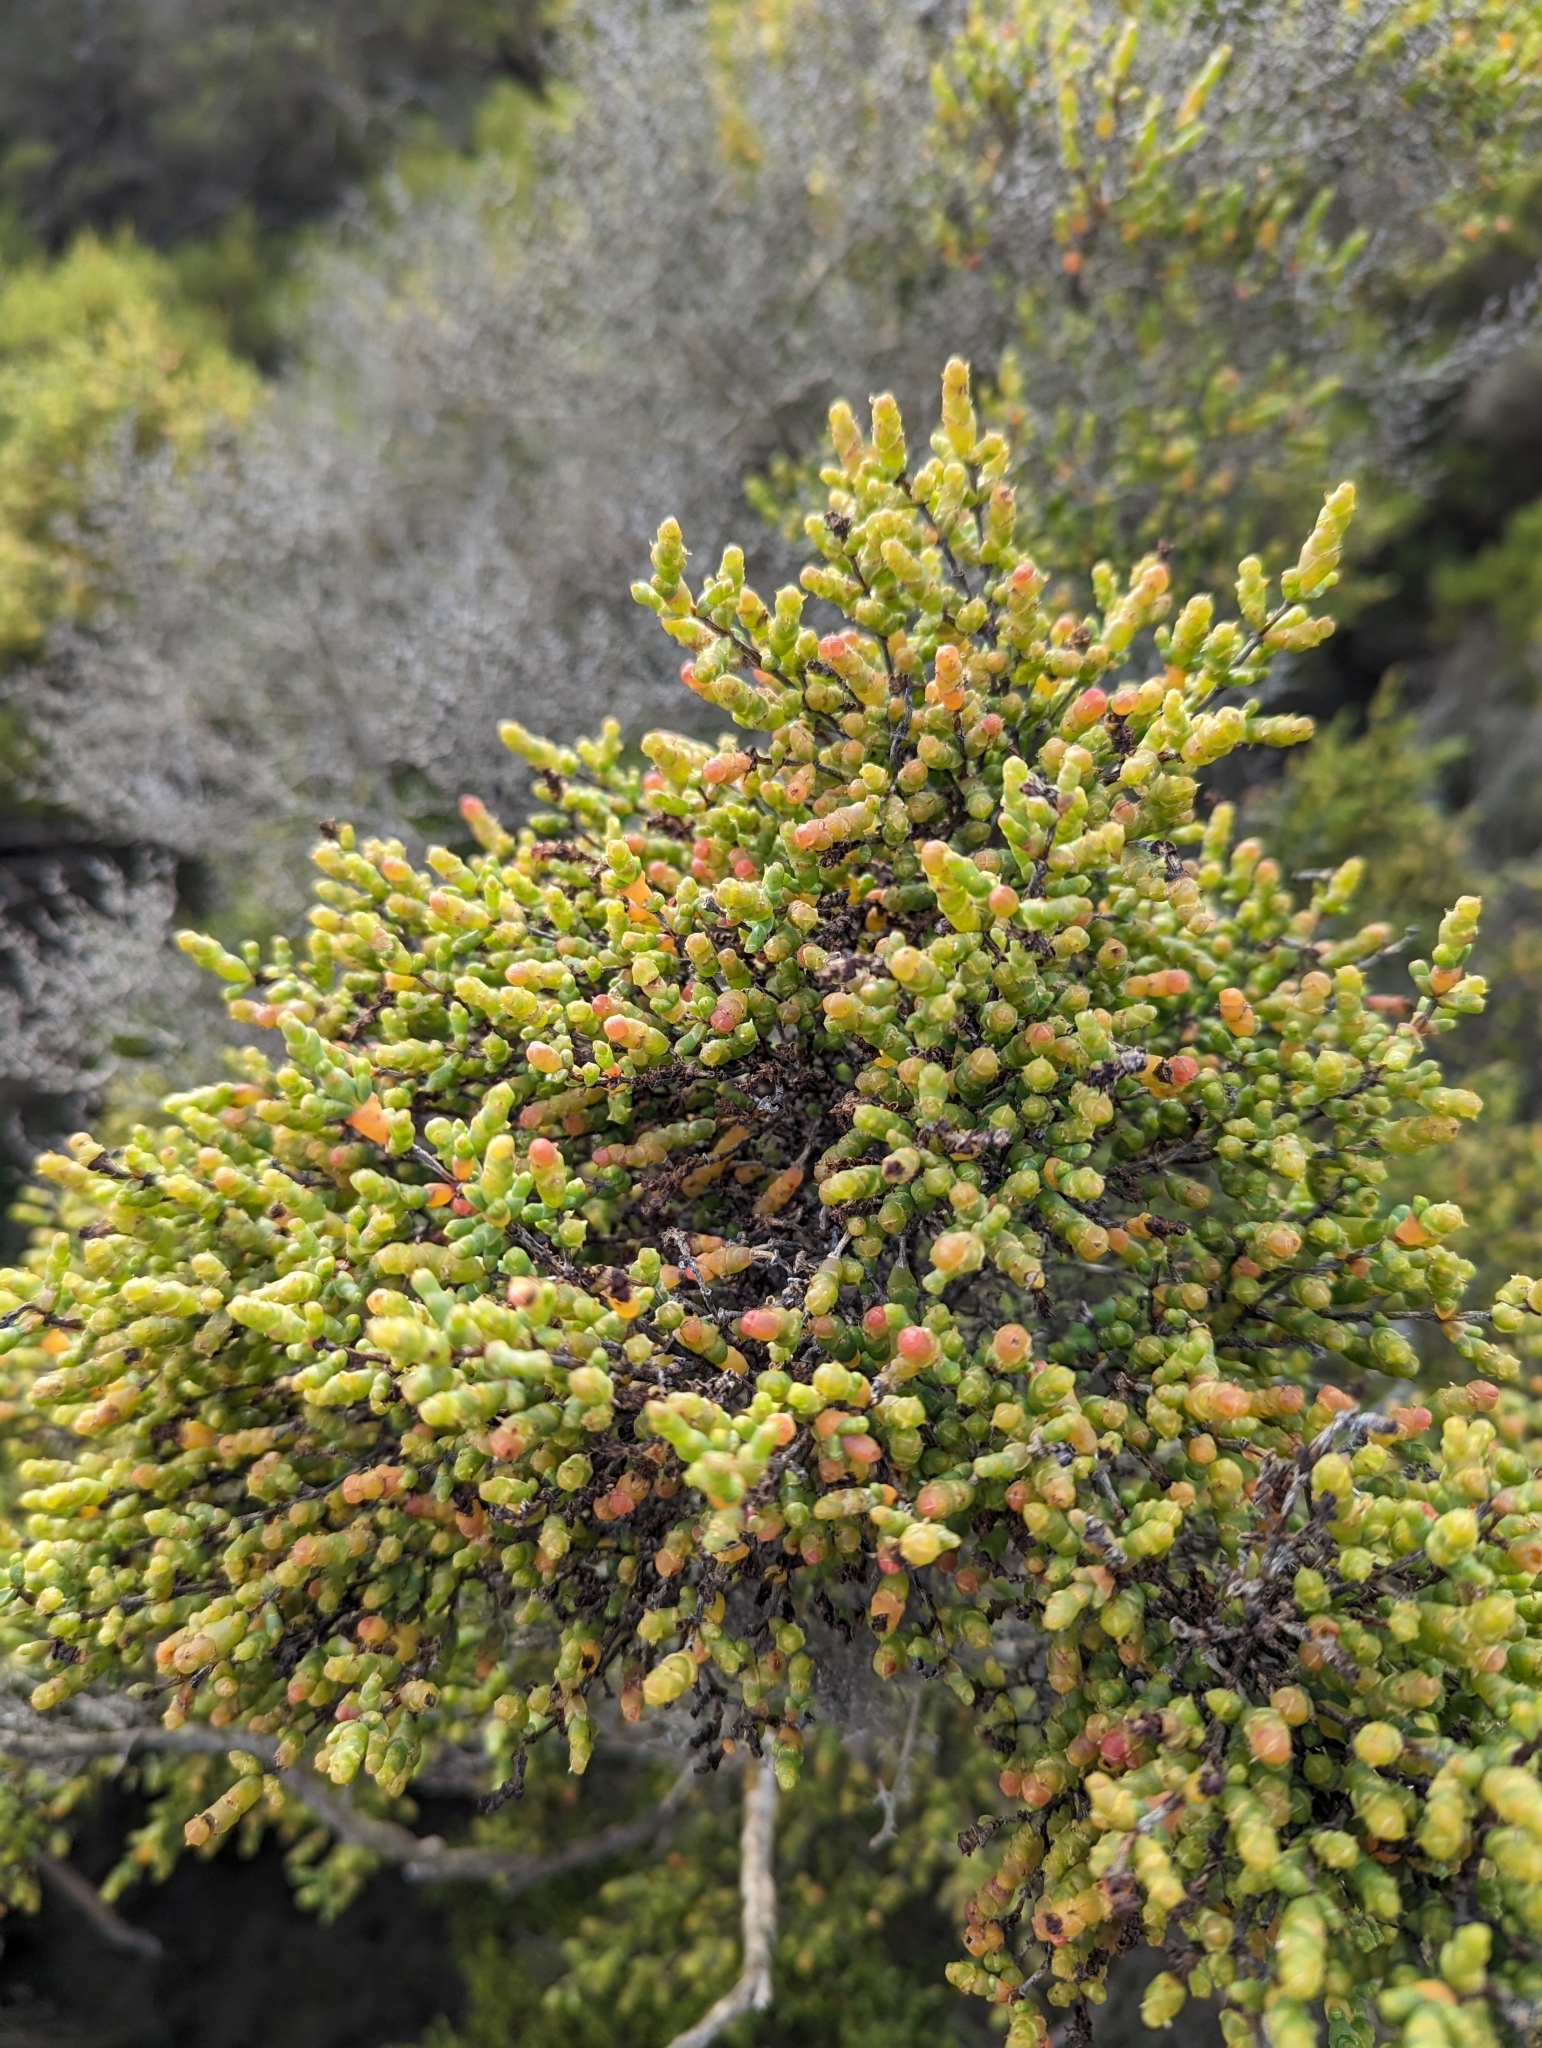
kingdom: Plantae
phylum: Tracheophyta
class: Magnoliopsida
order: Caryophyllales
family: Amaranthaceae
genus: Tecticornia
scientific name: Tecticornia arbuscula
